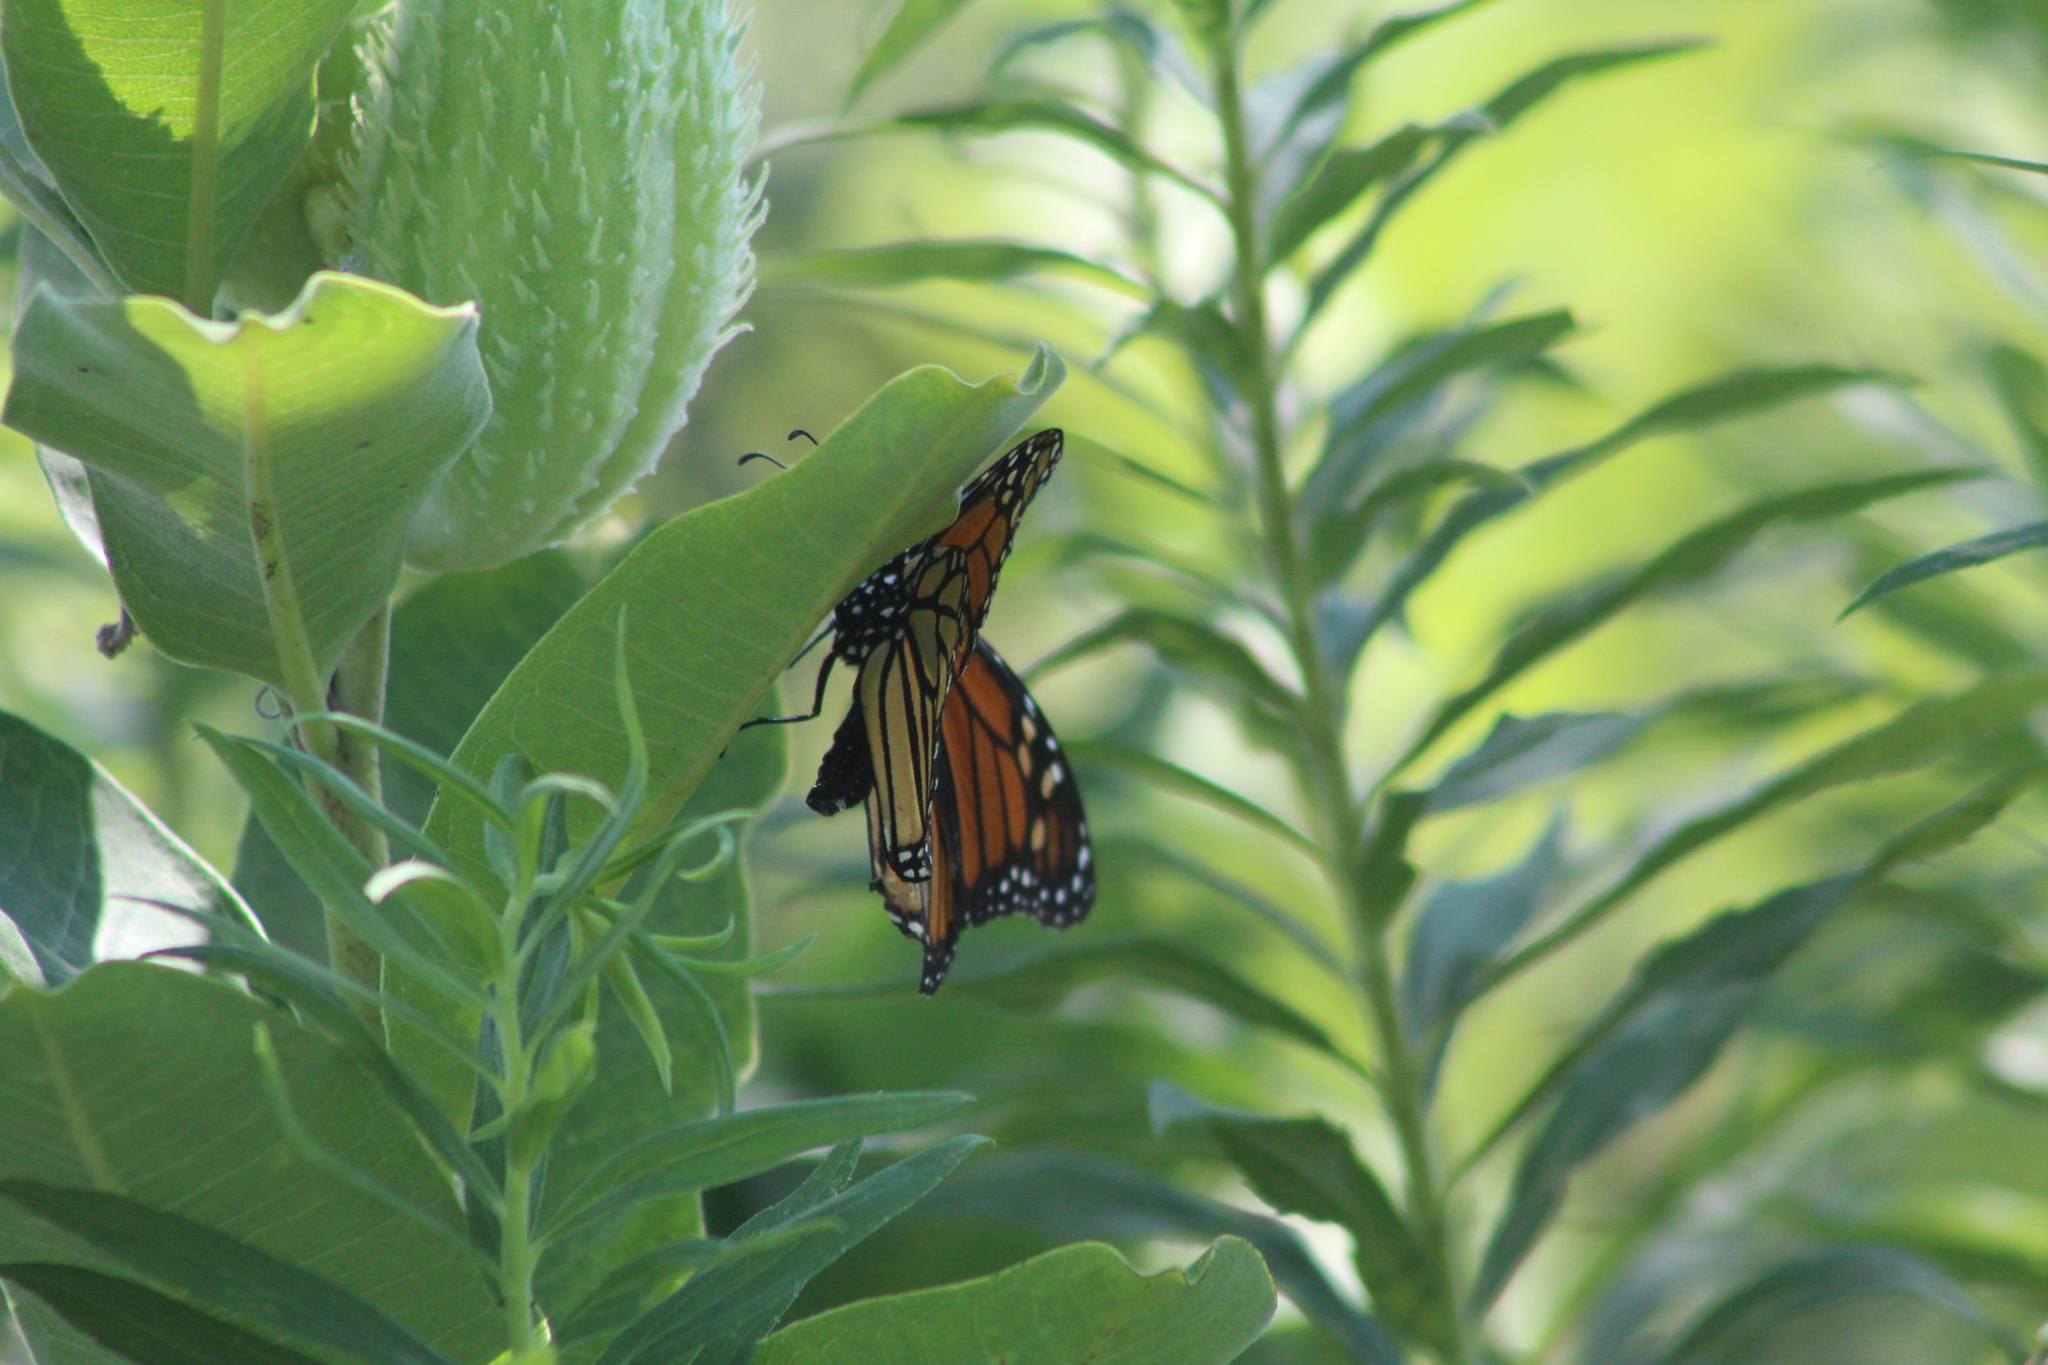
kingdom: Animalia
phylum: Arthropoda
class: Insecta
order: Lepidoptera
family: Nymphalidae
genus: Danaus
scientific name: Danaus plexippus
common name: Monarch
